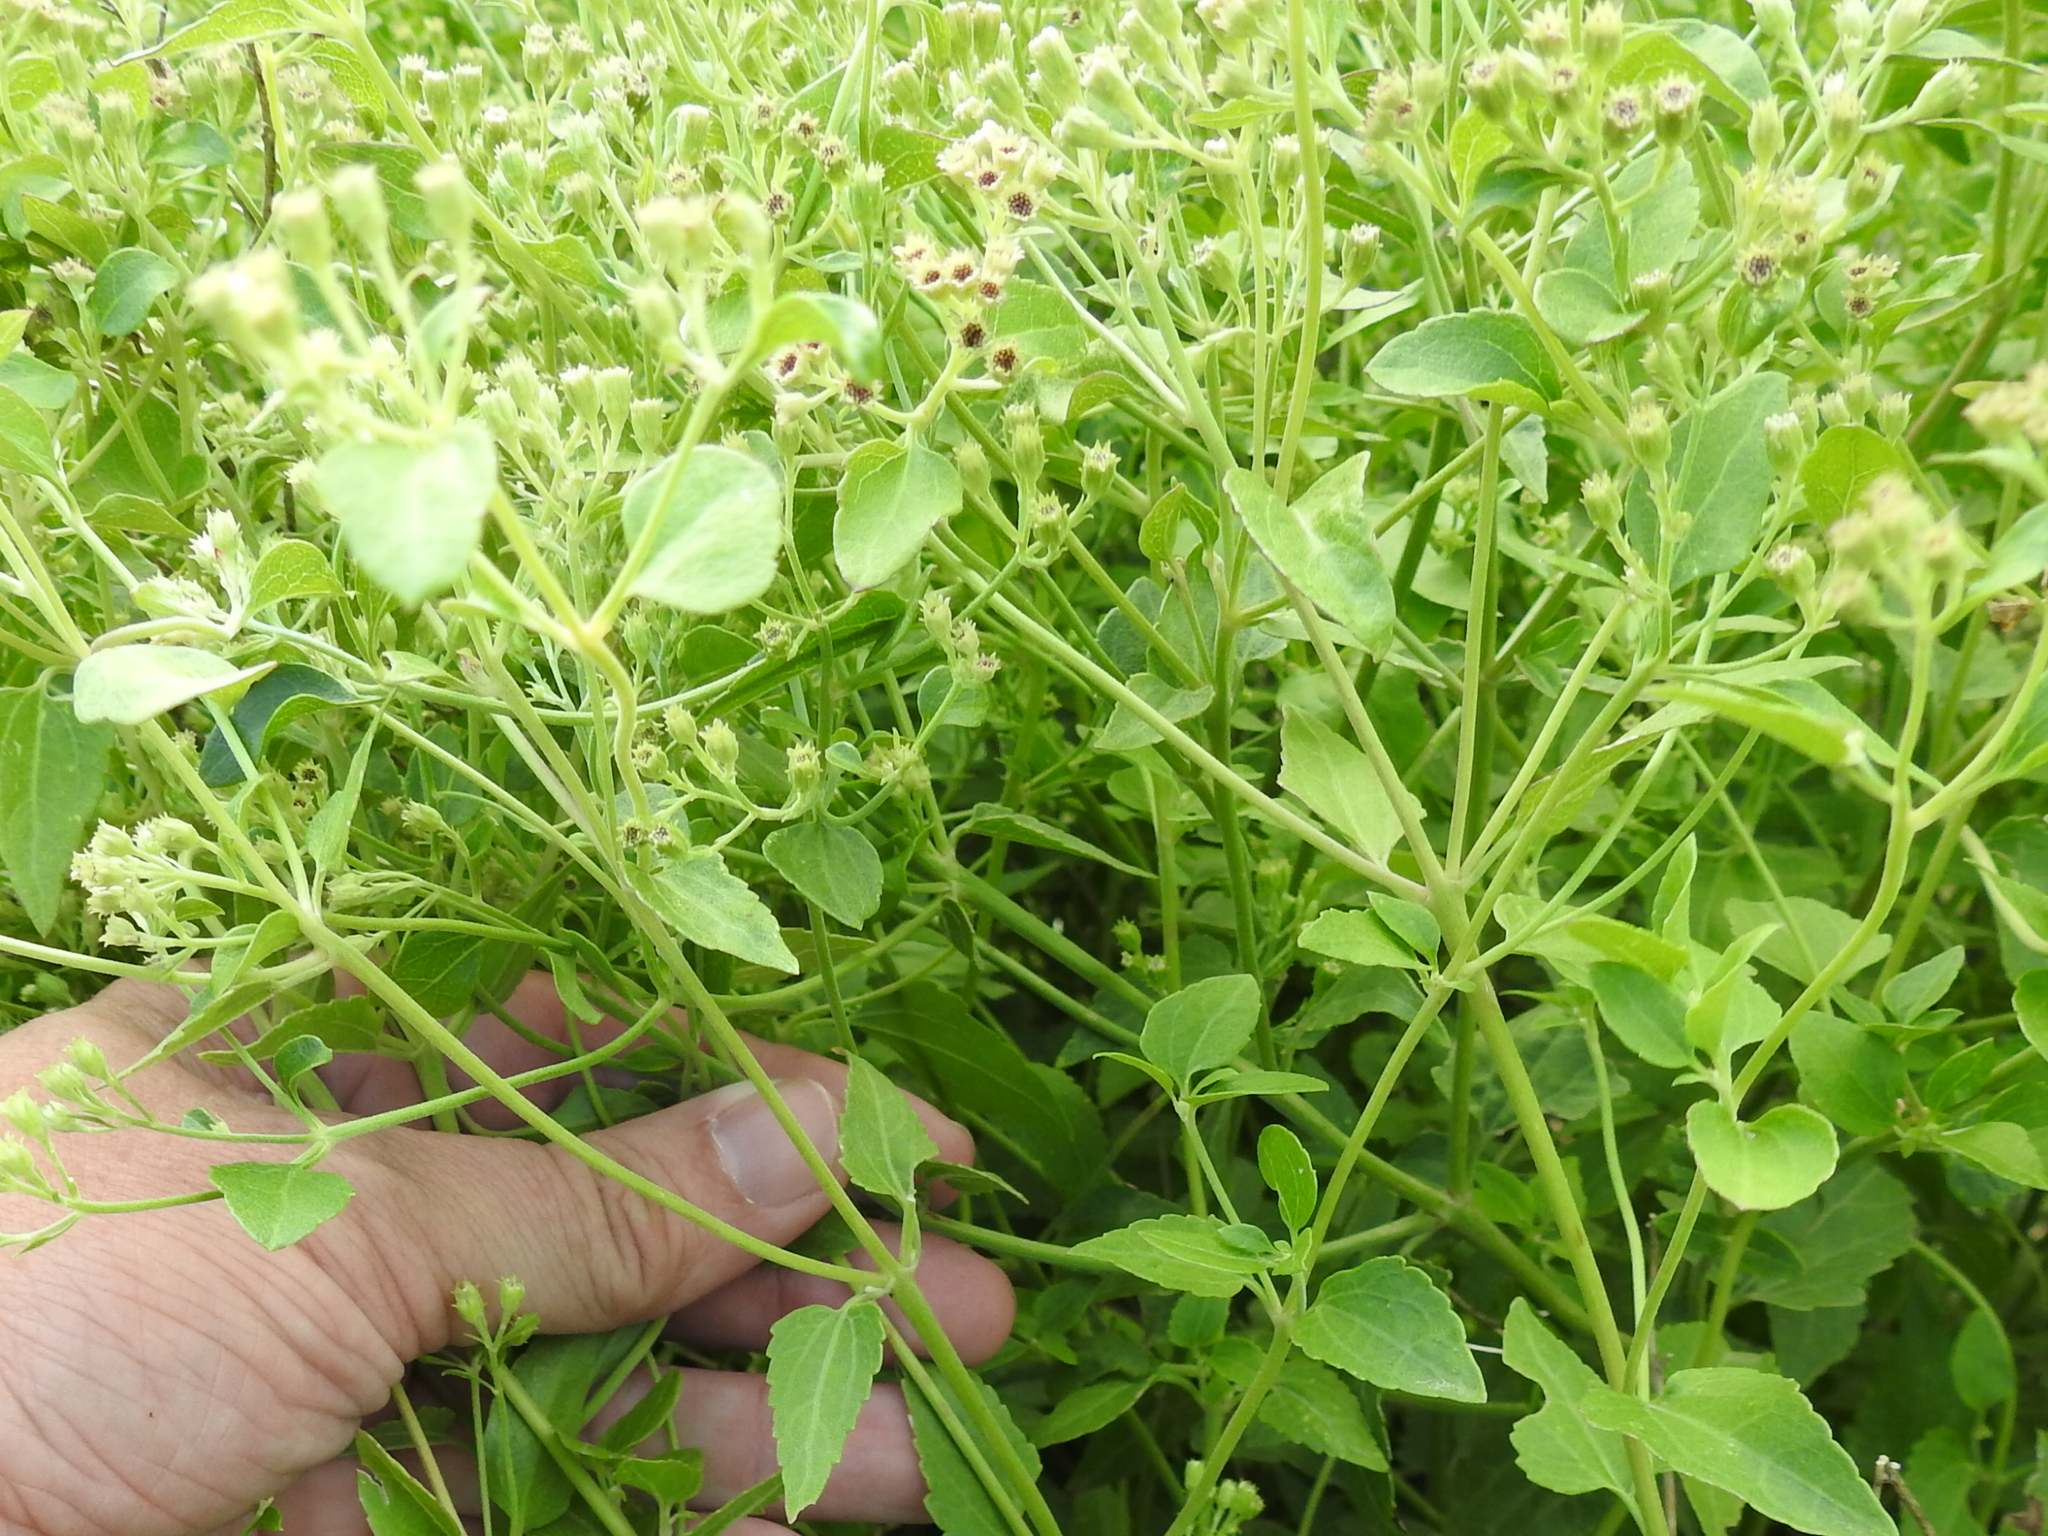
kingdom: Plantae
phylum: Tracheophyta
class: Magnoliopsida
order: Asterales
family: Asteraceae
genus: Ageratina
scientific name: Ageratina herbacea
